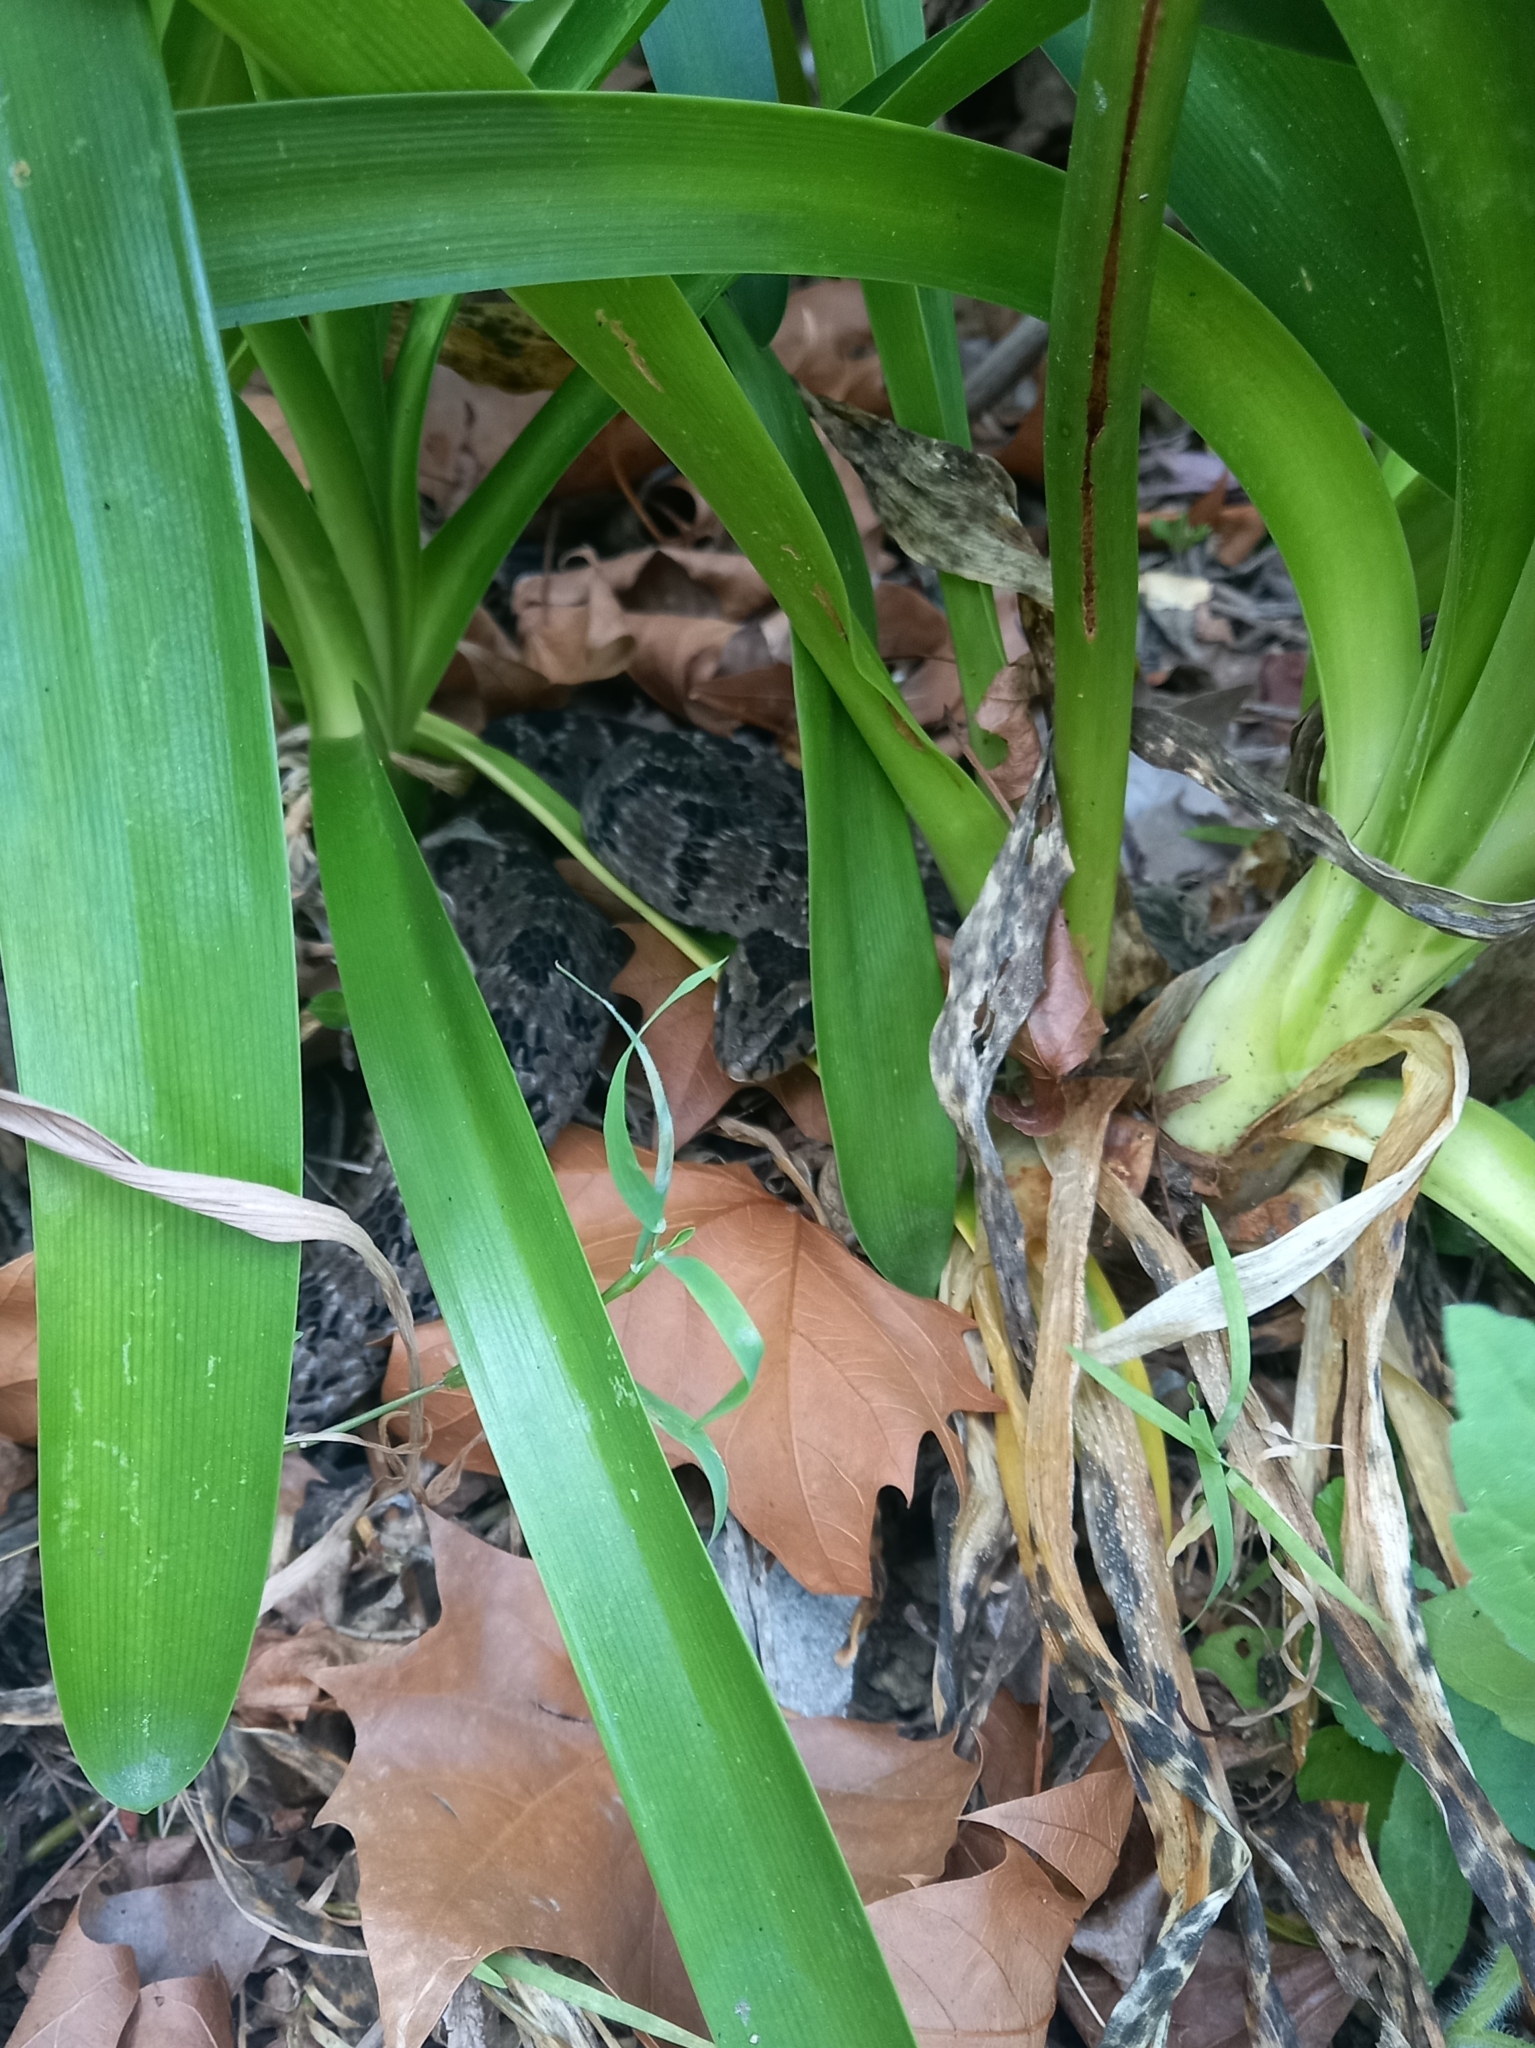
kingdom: Animalia
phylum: Chordata
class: Squamata
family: Viperidae
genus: Causus
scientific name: Causus rhombeatus
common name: Common night adder
